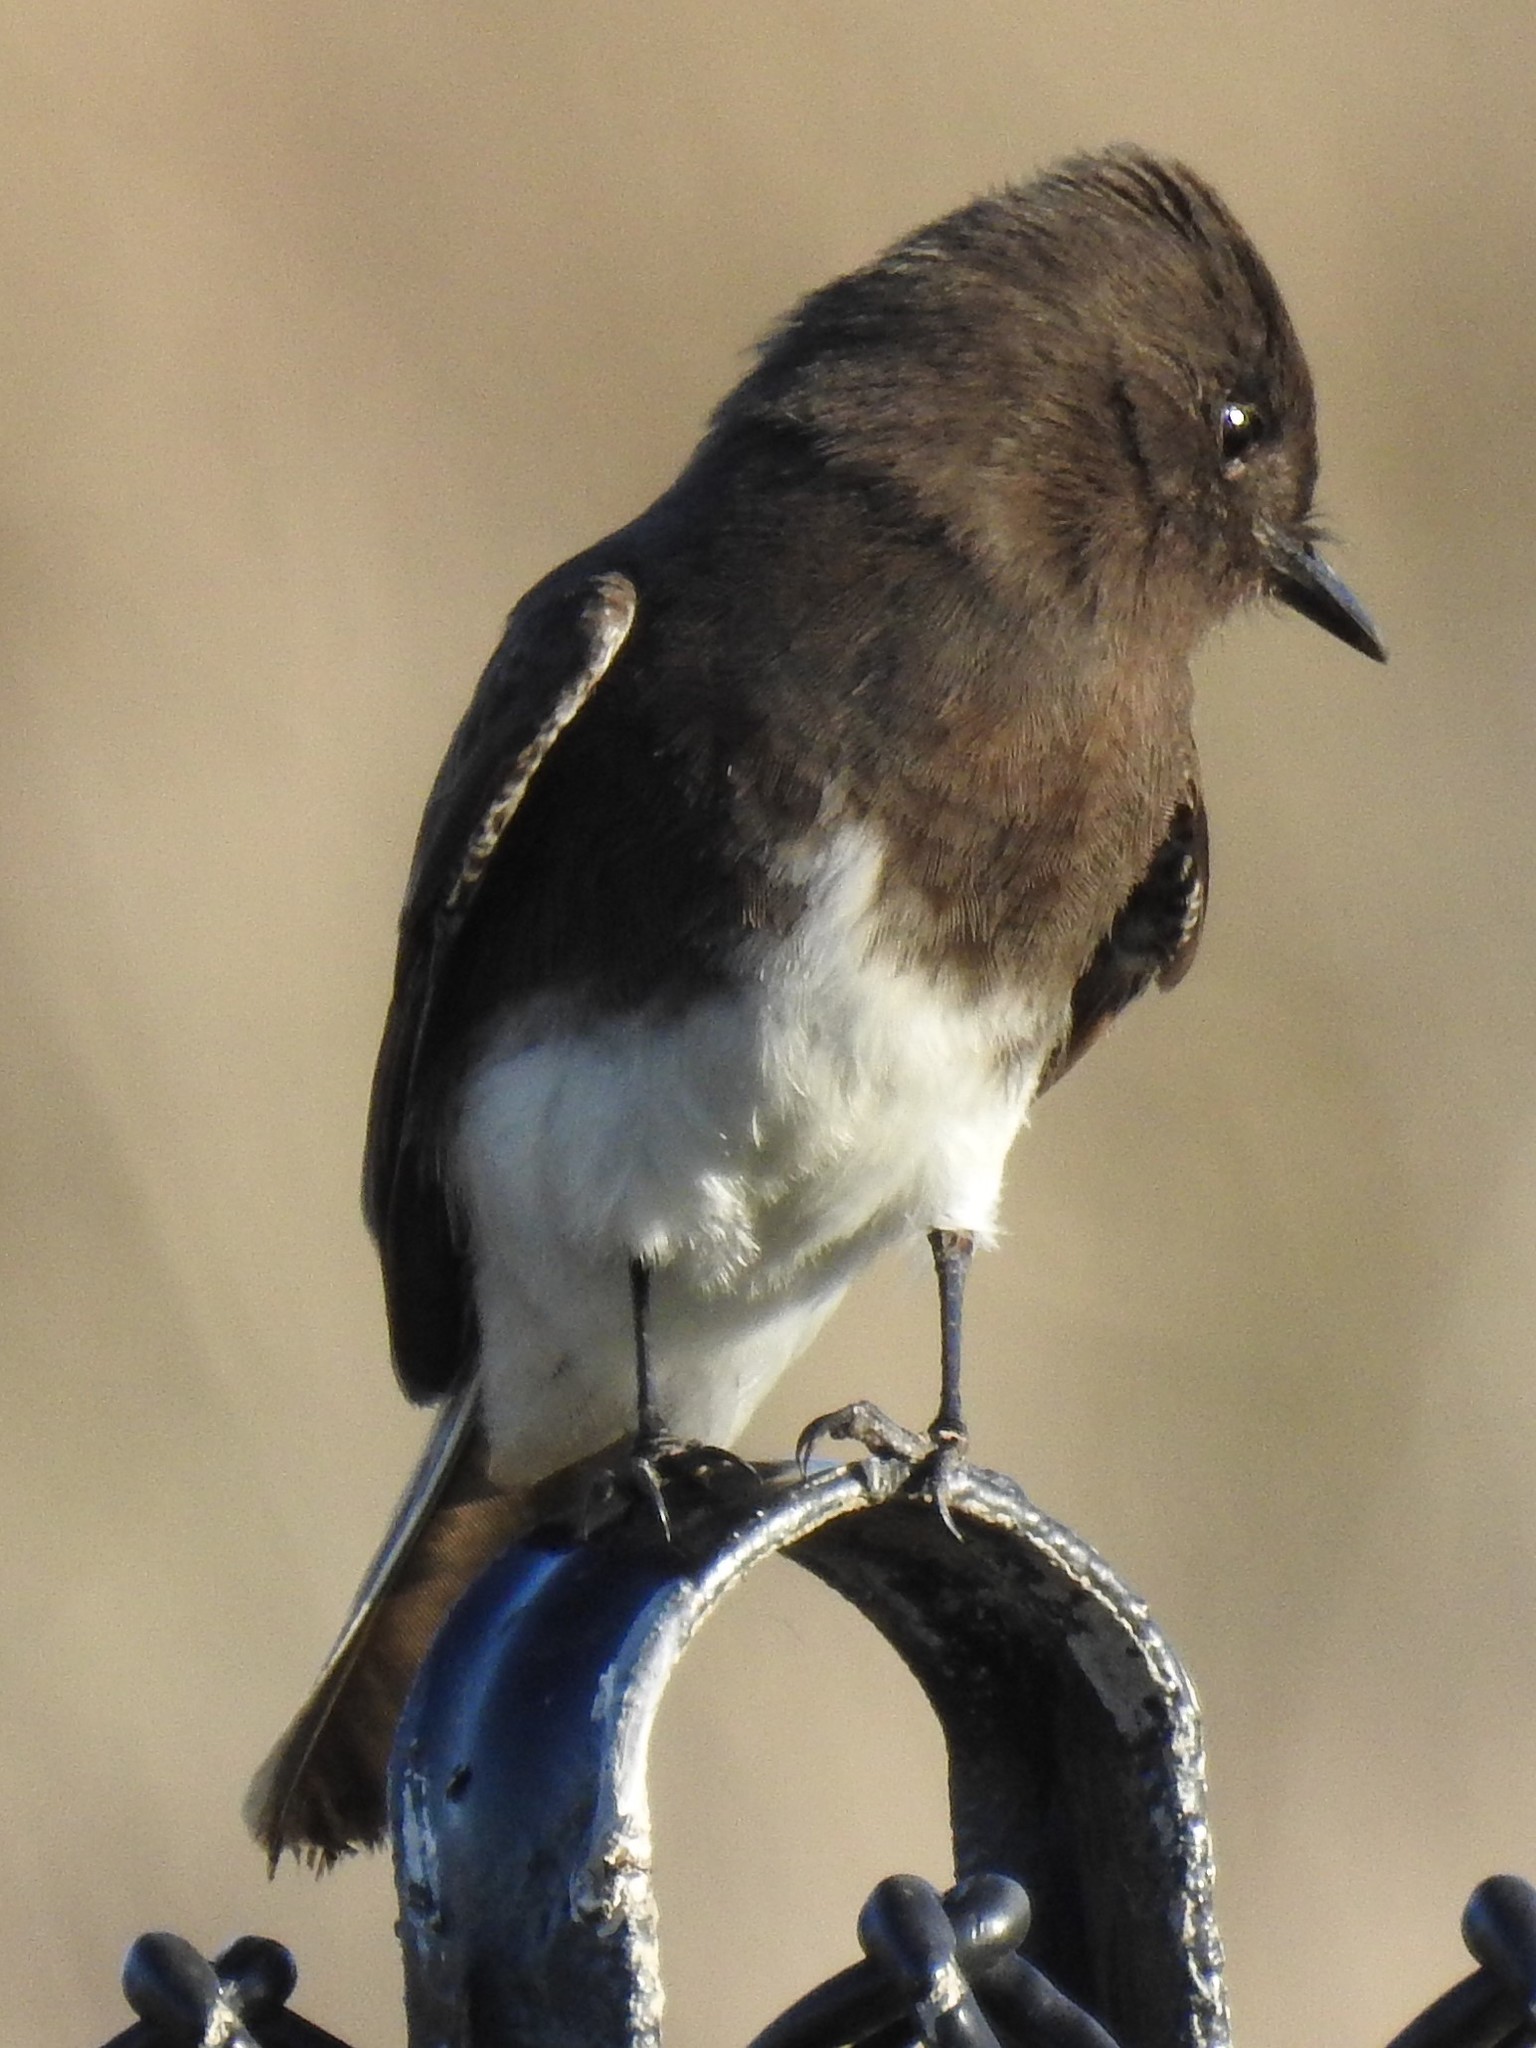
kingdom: Animalia
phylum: Chordata
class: Aves
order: Passeriformes
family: Tyrannidae
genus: Sayornis
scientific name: Sayornis nigricans
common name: Black phoebe
